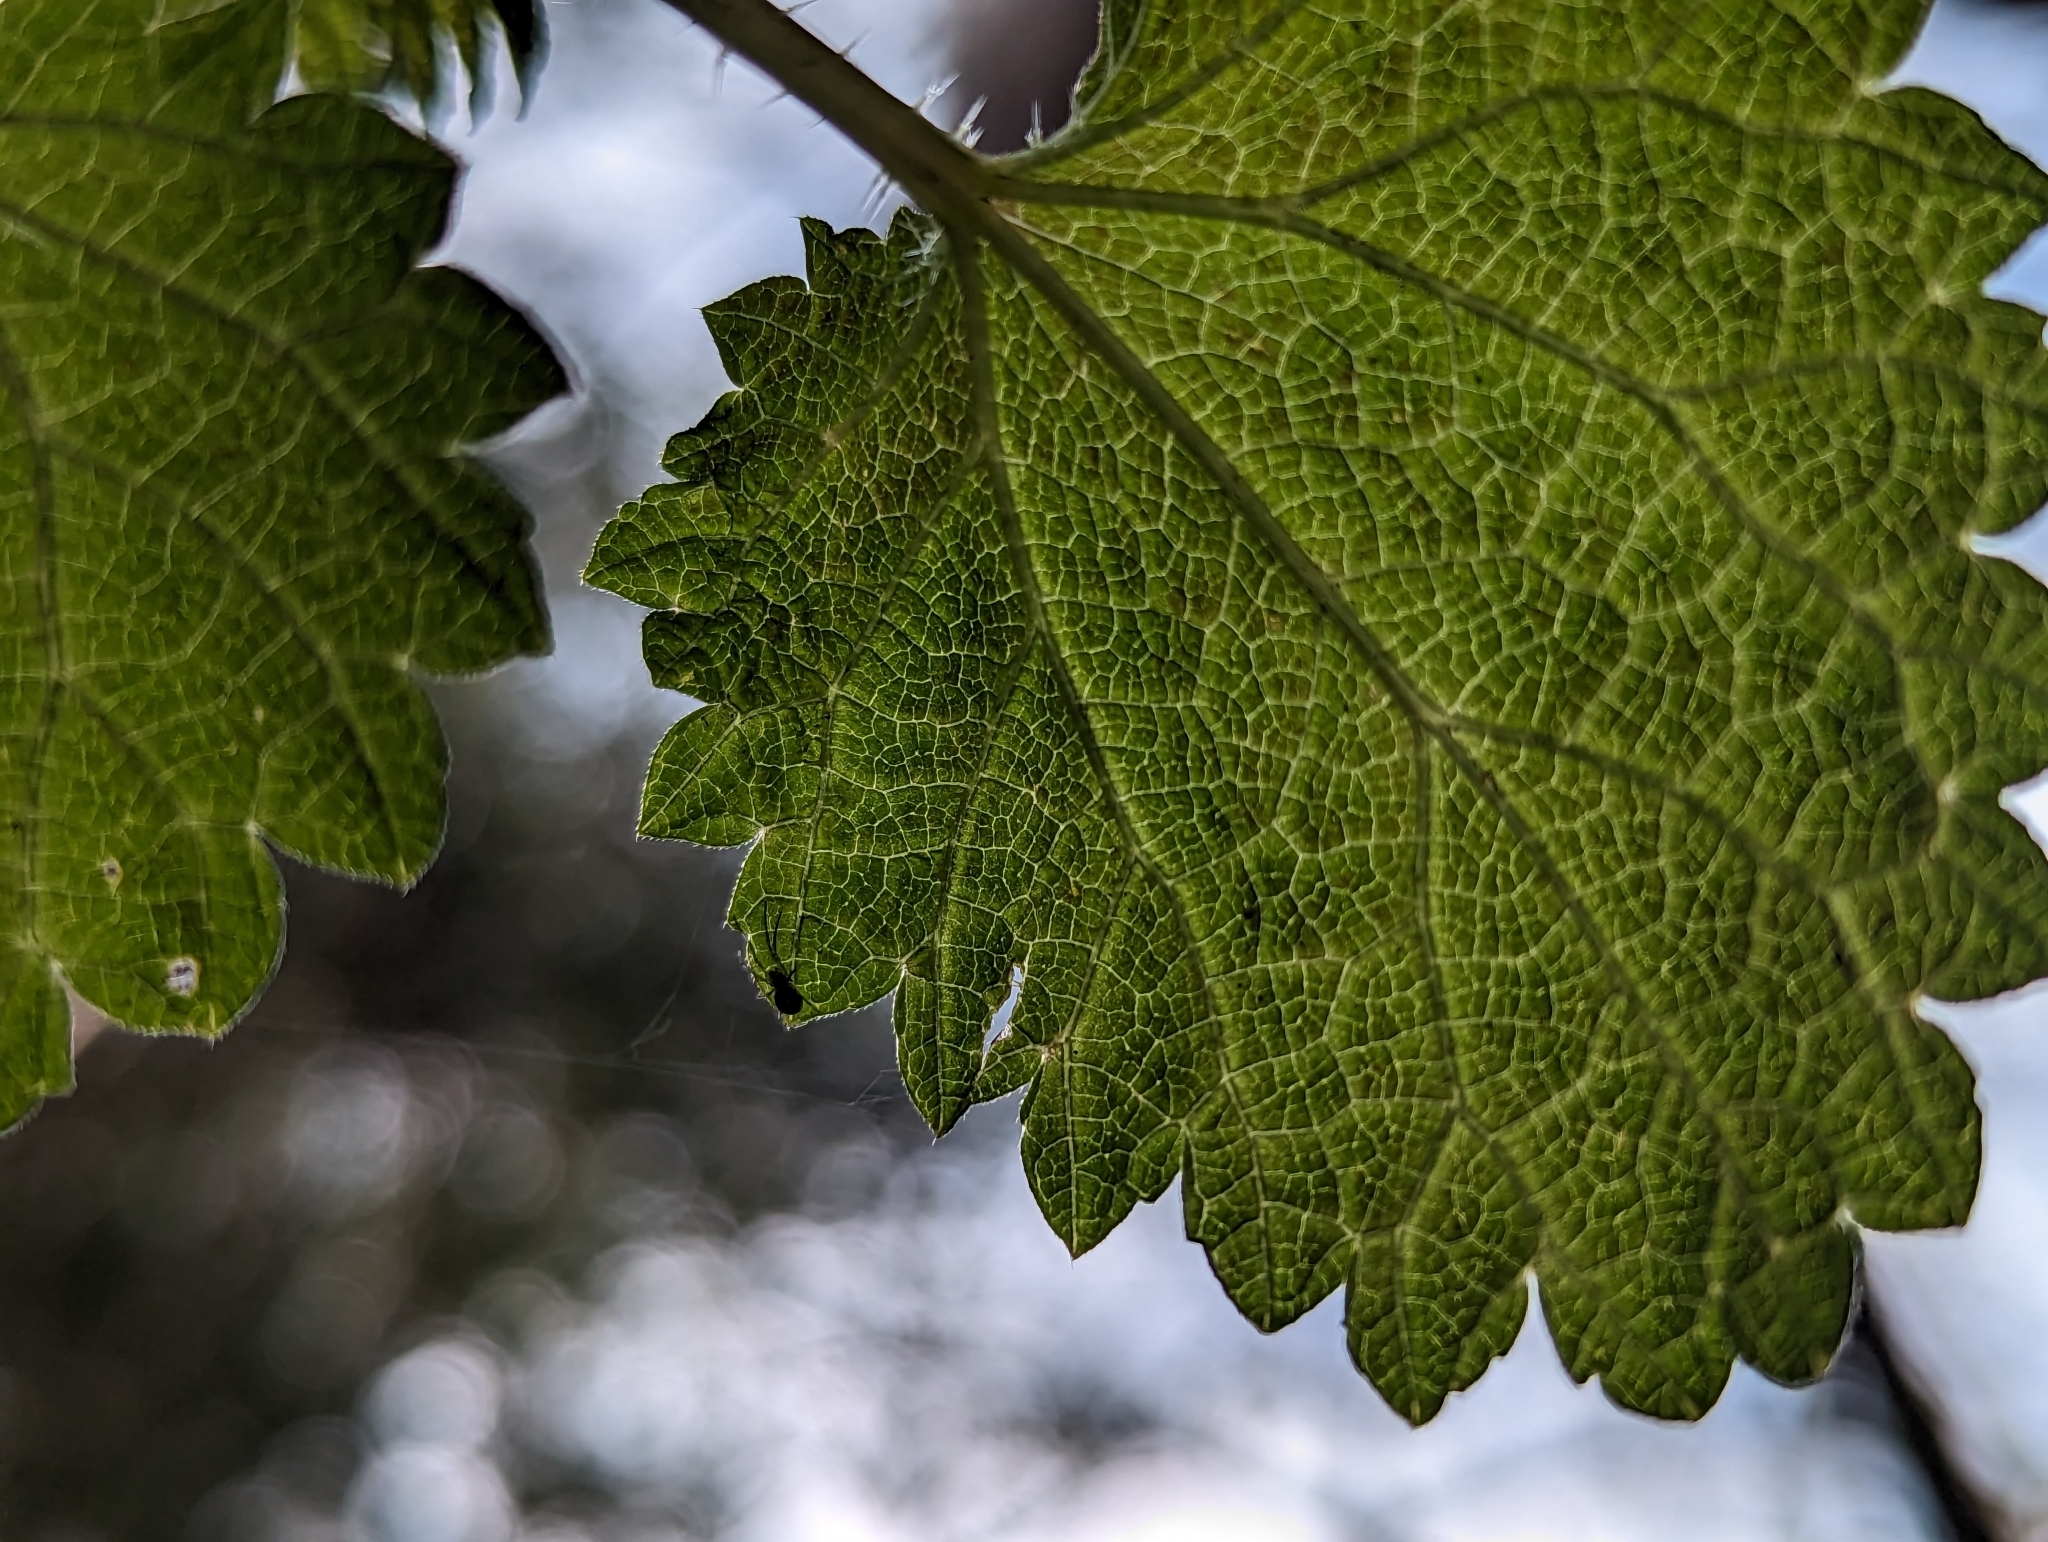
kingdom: Plantae
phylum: Tracheophyta
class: Magnoliopsida
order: Rosales
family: Urticaceae
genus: Urtica
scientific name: Urtica gracilis
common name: Slender stinging nettle
